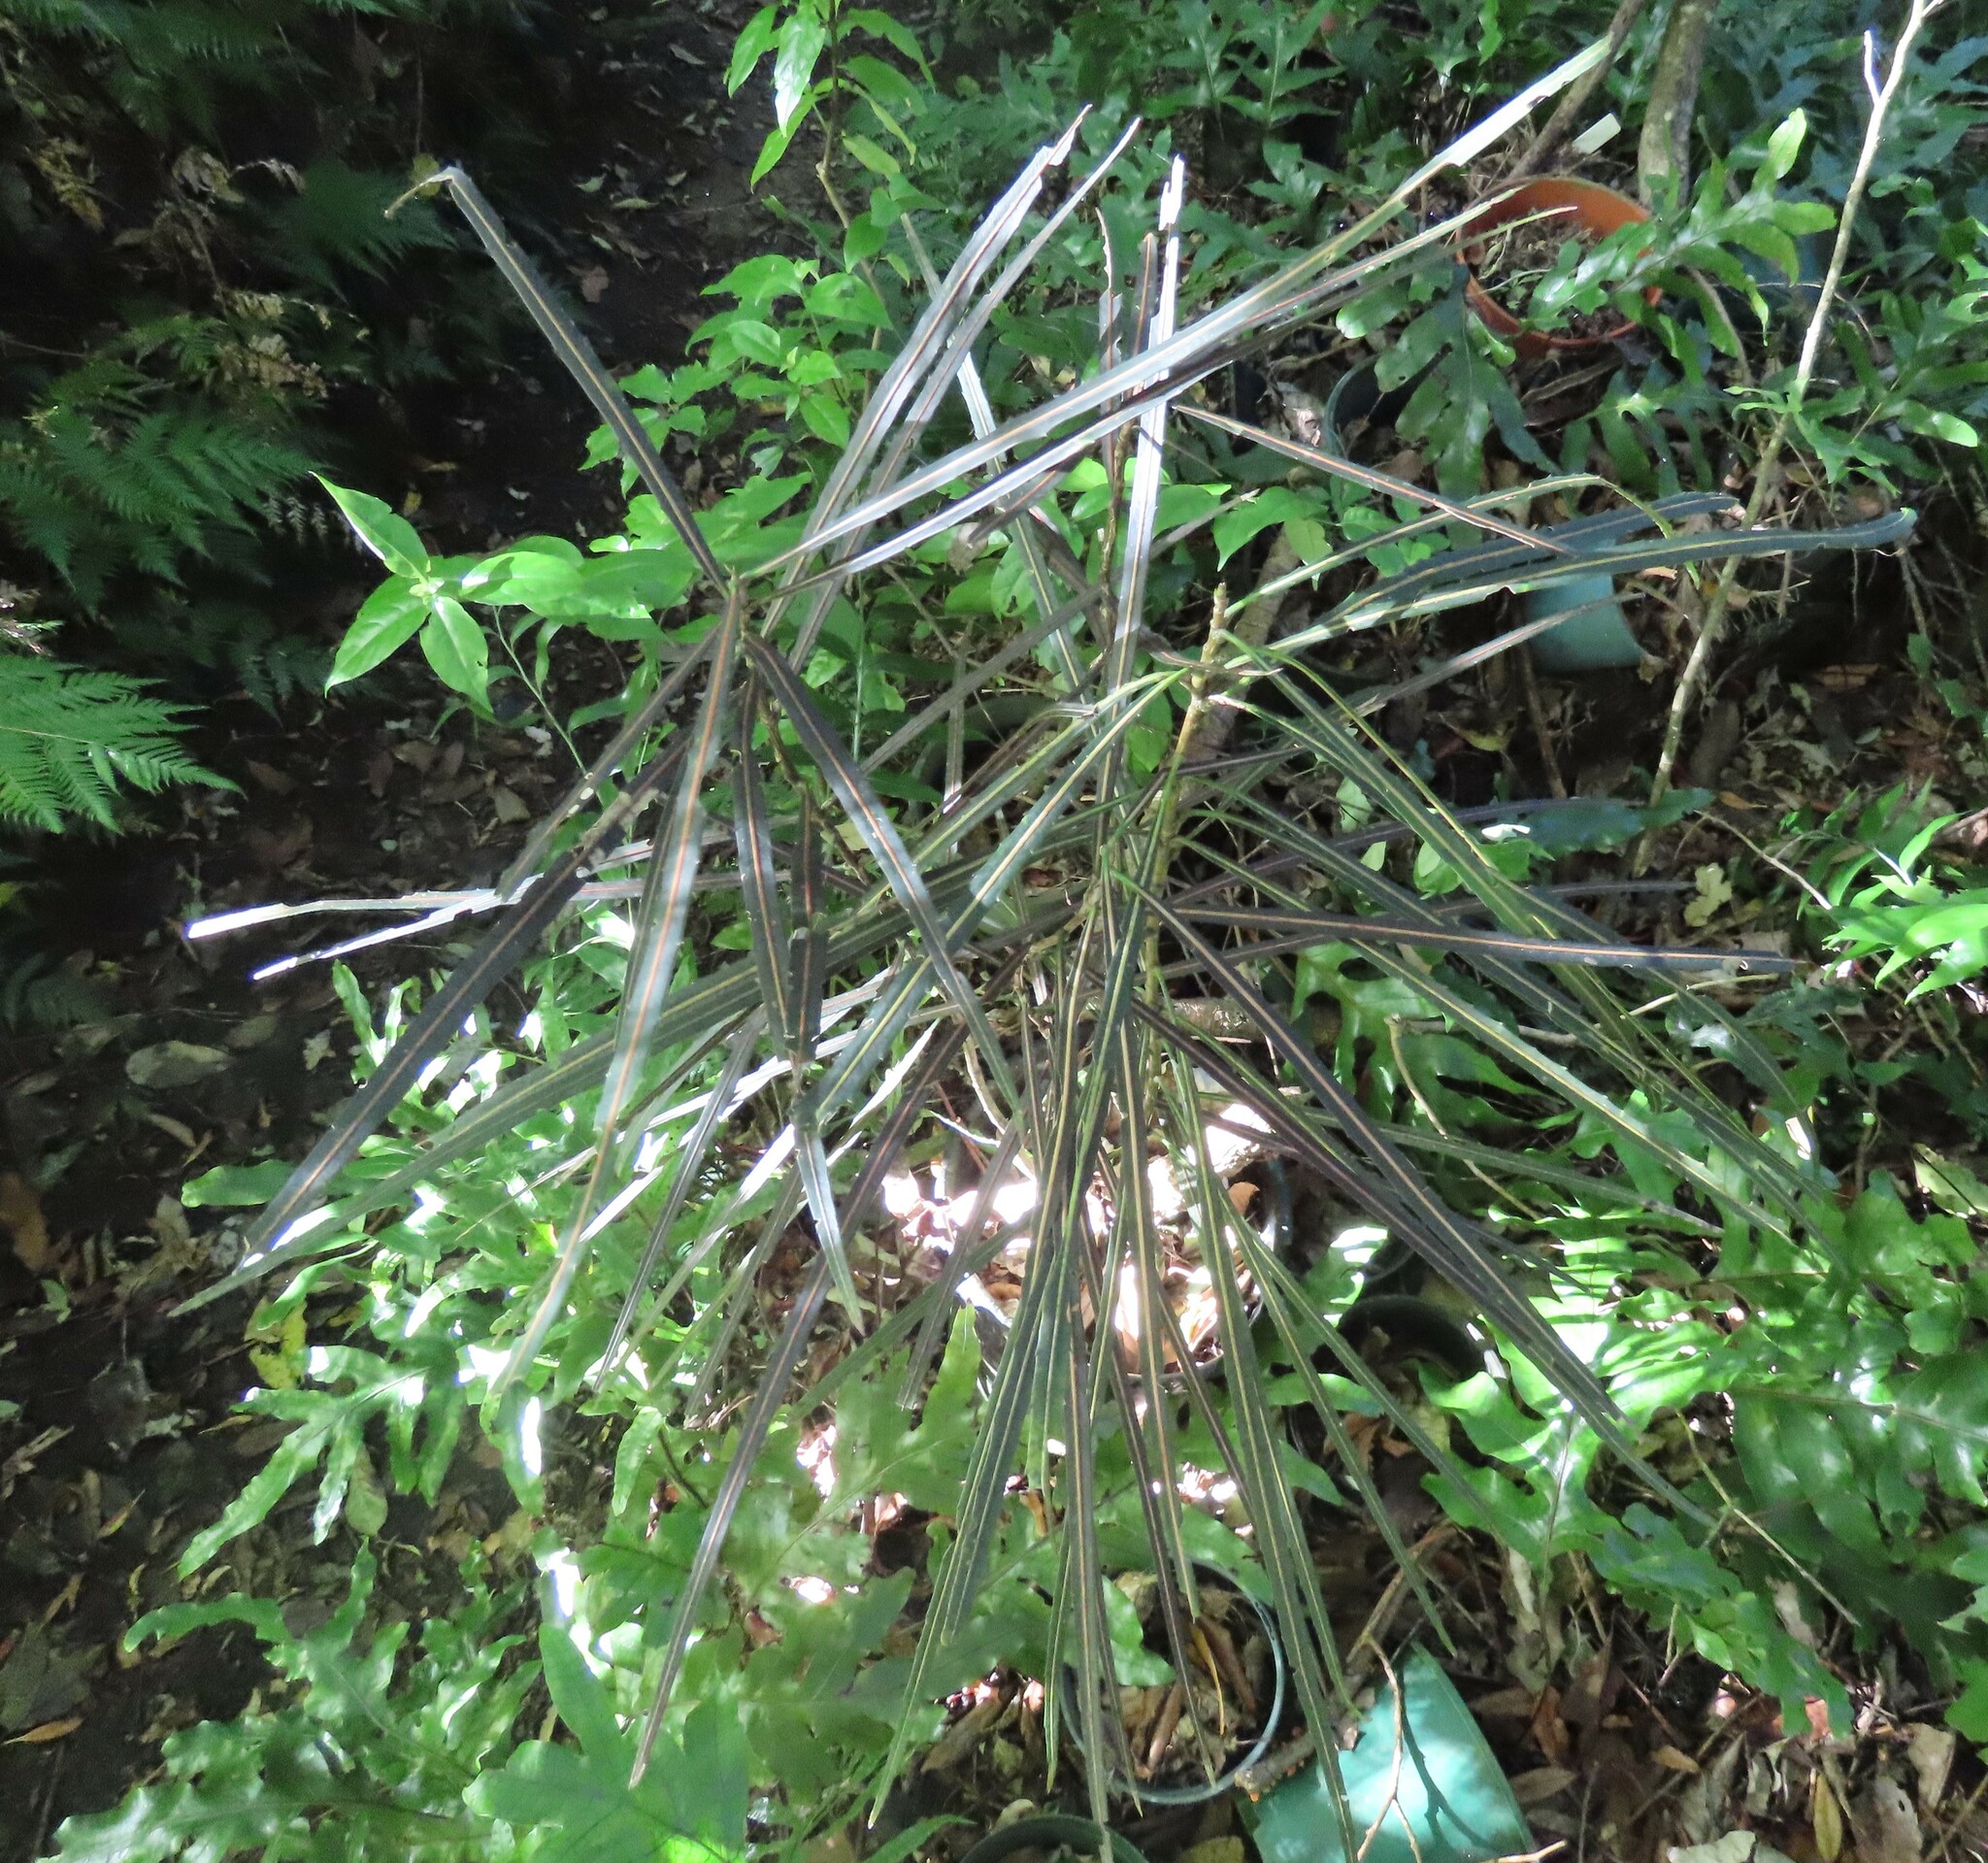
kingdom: Plantae
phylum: Tracheophyta
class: Magnoliopsida
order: Apiales
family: Araliaceae
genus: Pseudopanax
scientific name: Pseudopanax crassifolius
